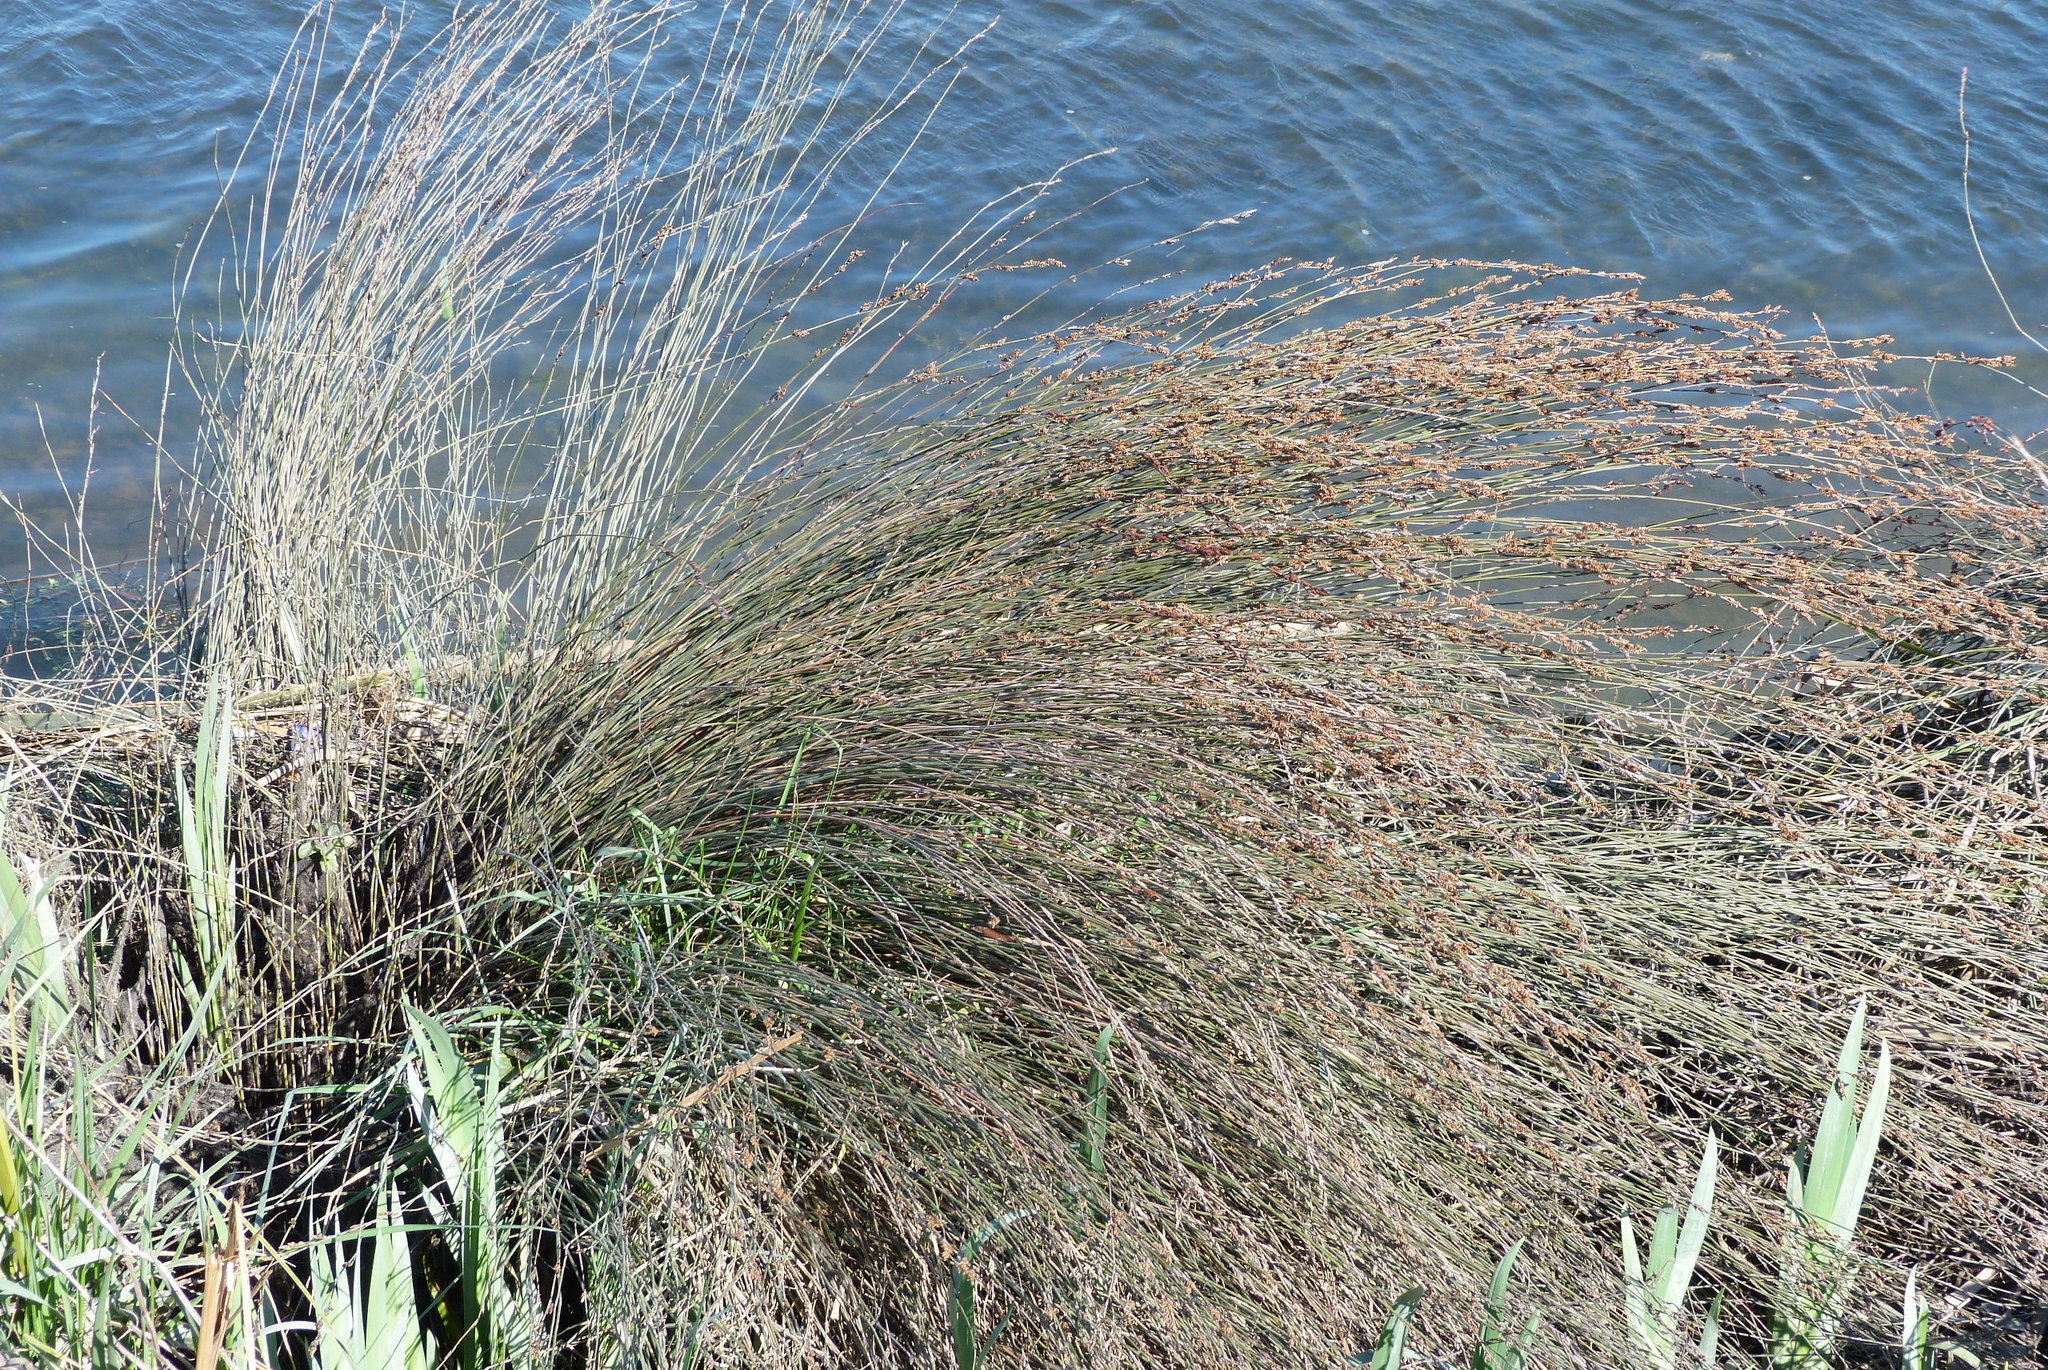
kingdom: Plantae
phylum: Tracheophyta
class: Liliopsida
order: Poales
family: Restionaceae
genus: Apodasmia
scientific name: Apodasmia similis
